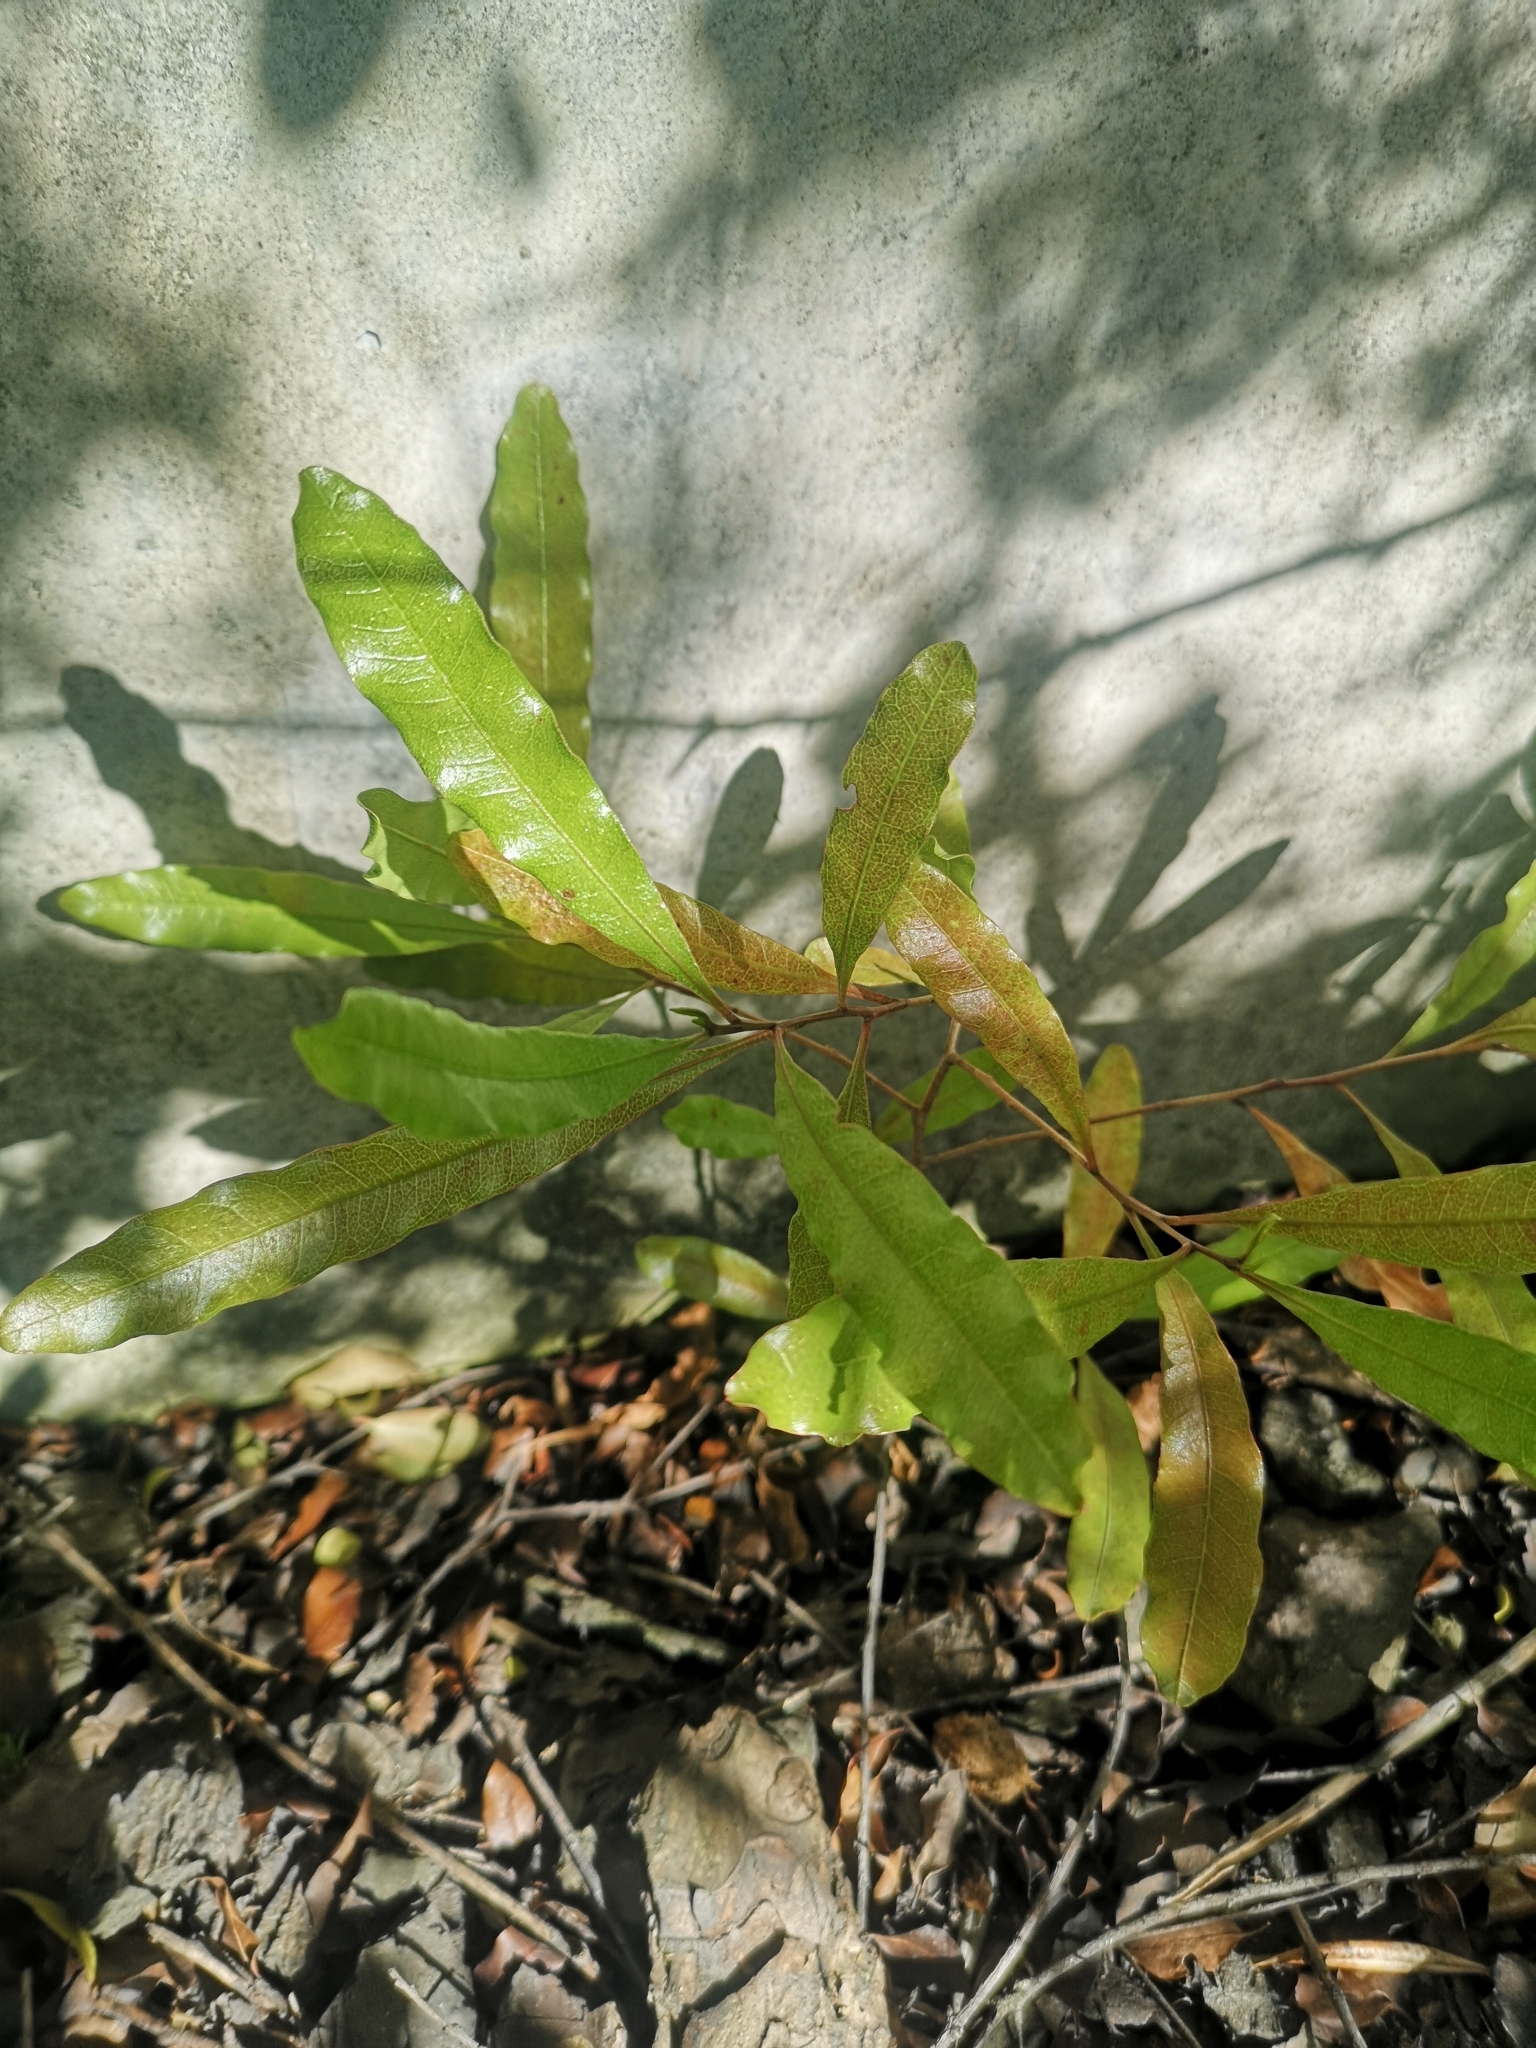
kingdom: Plantae
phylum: Tracheophyta
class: Magnoliopsida
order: Sapindales
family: Sapindaceae
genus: Dodonaea
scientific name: Dodonaea viscosa
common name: Hopbush
